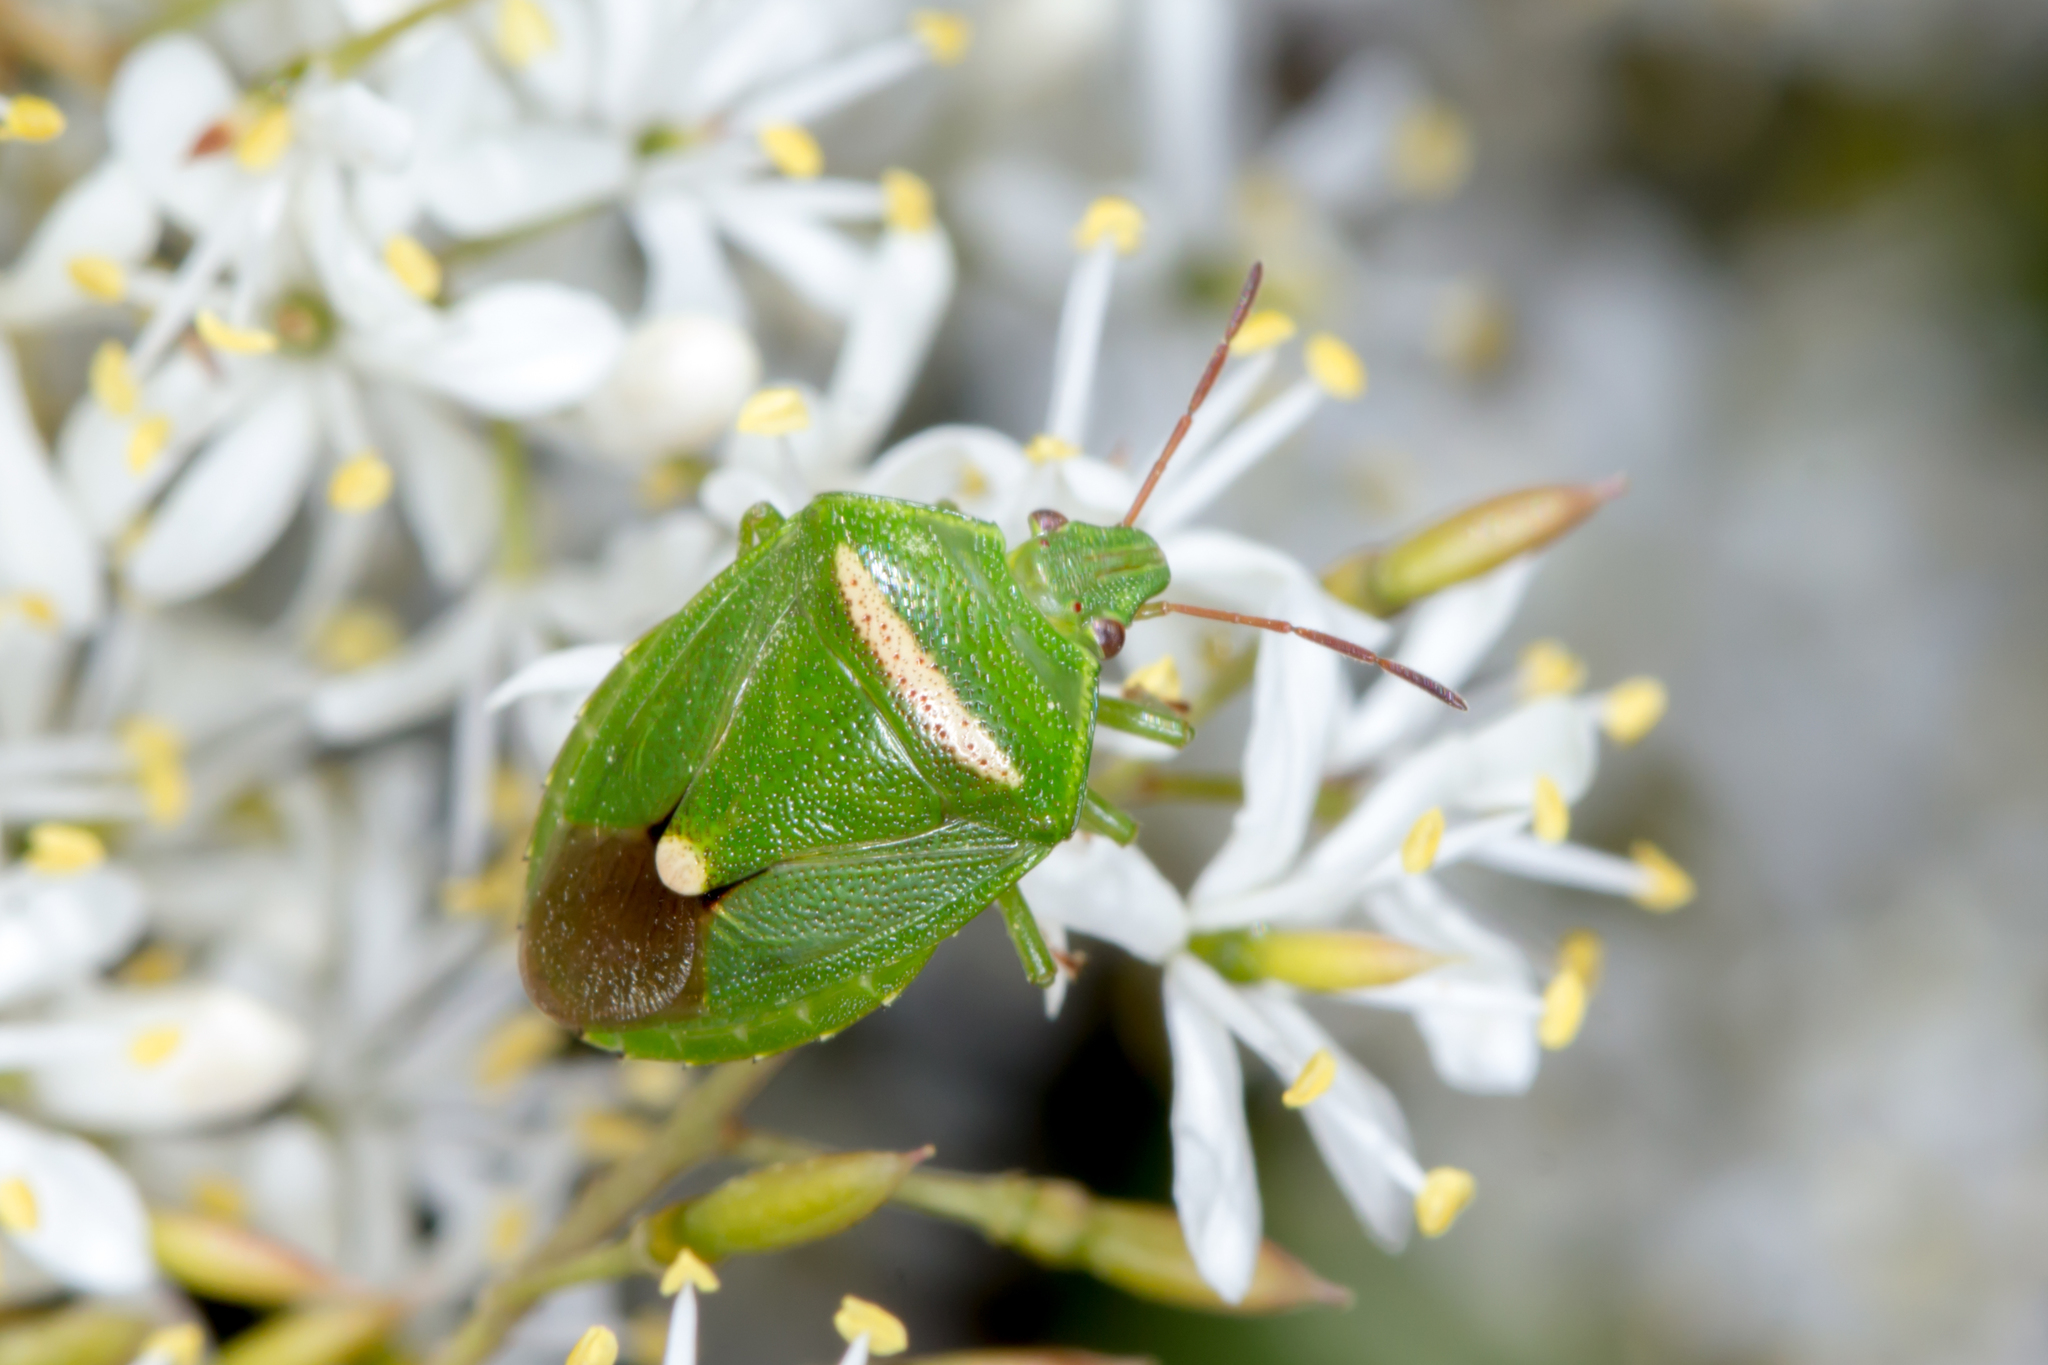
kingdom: Animalia
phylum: Arthropoda
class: Insecta
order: Hemiptera
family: Pentatomidae
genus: Ocirrhoe
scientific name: Ocirrhoe
